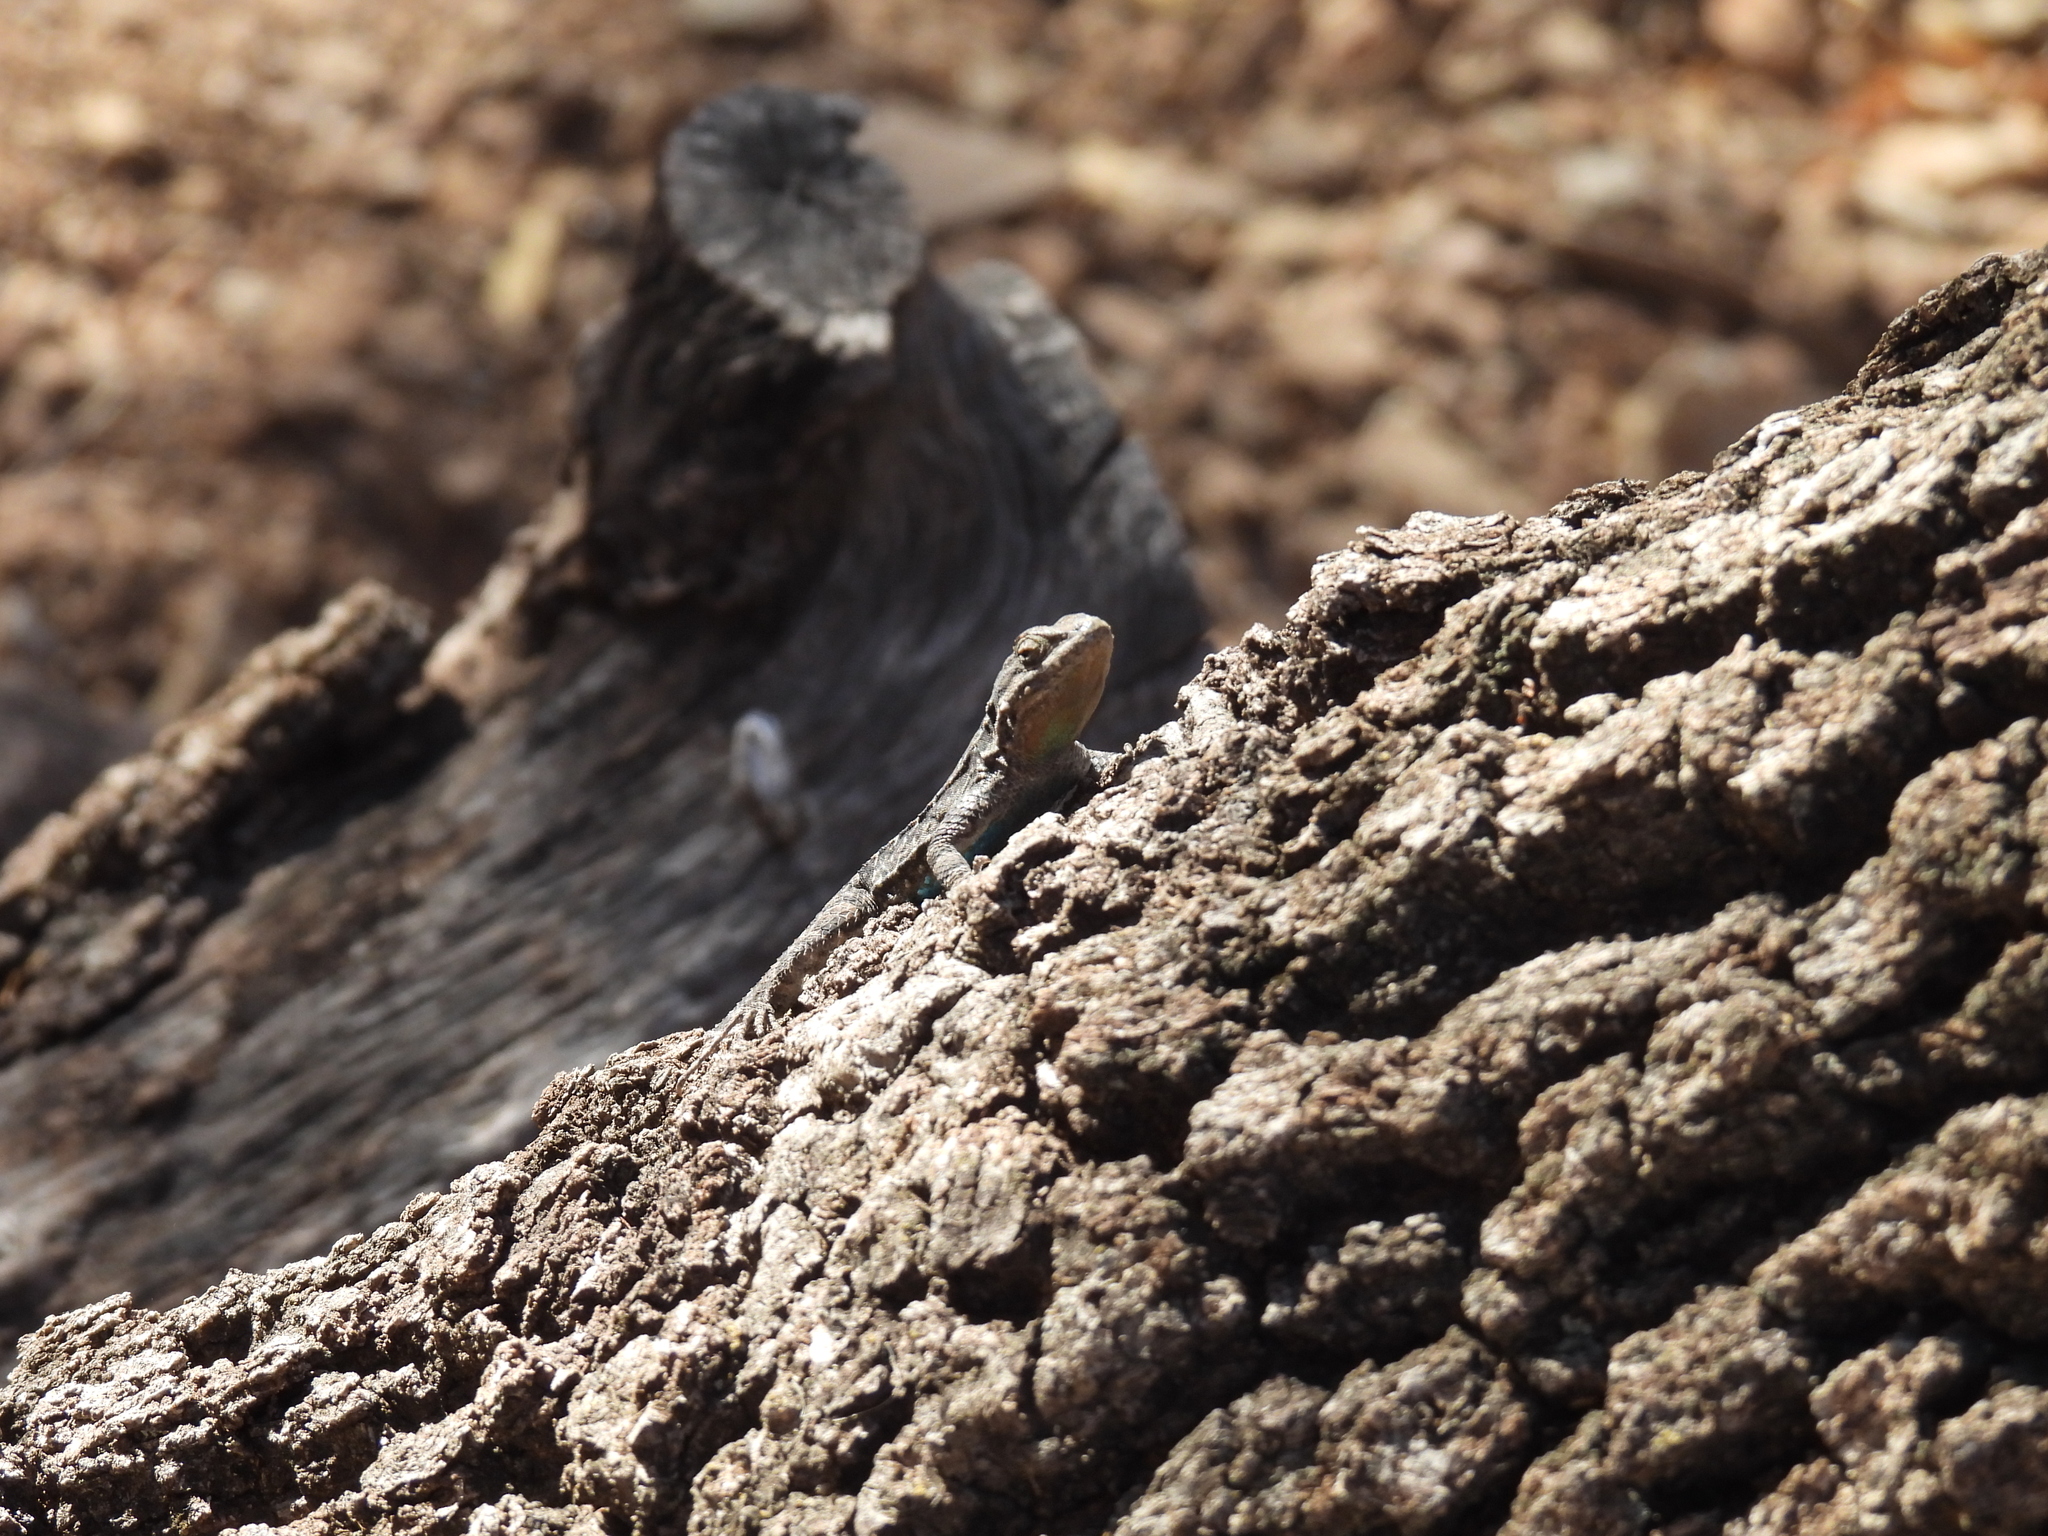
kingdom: Animalia
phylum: Chordata
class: Squamata
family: Phrynosomatidae
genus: Urosaurus
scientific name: Urosaurus ornatus
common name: Ornate tree lizard
